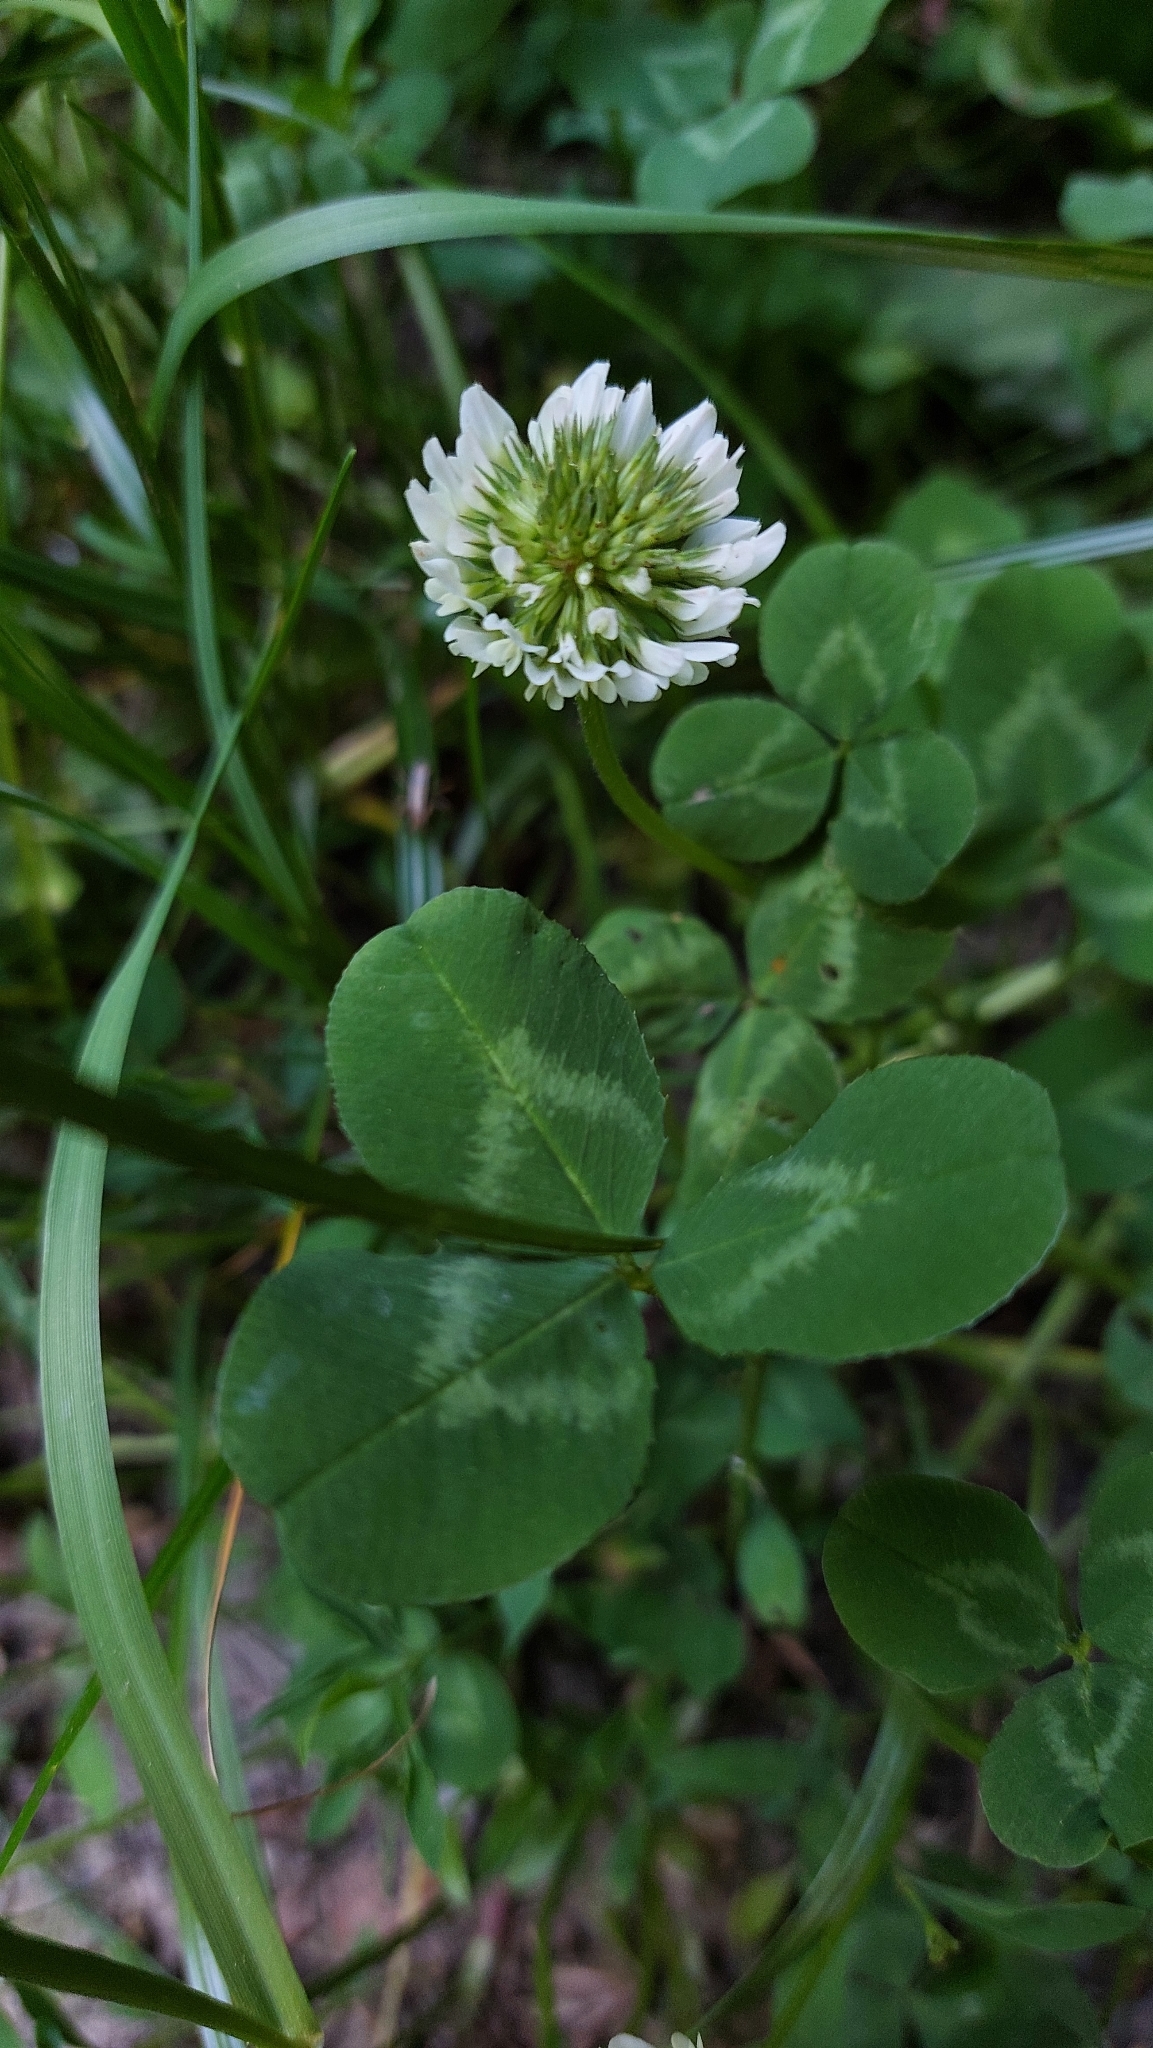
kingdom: Plantae
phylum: Tracheophyta
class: Magnoliopsida
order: Fabales
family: Fabaceae
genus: Trifolium
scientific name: Trifolium repens
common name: White clover
